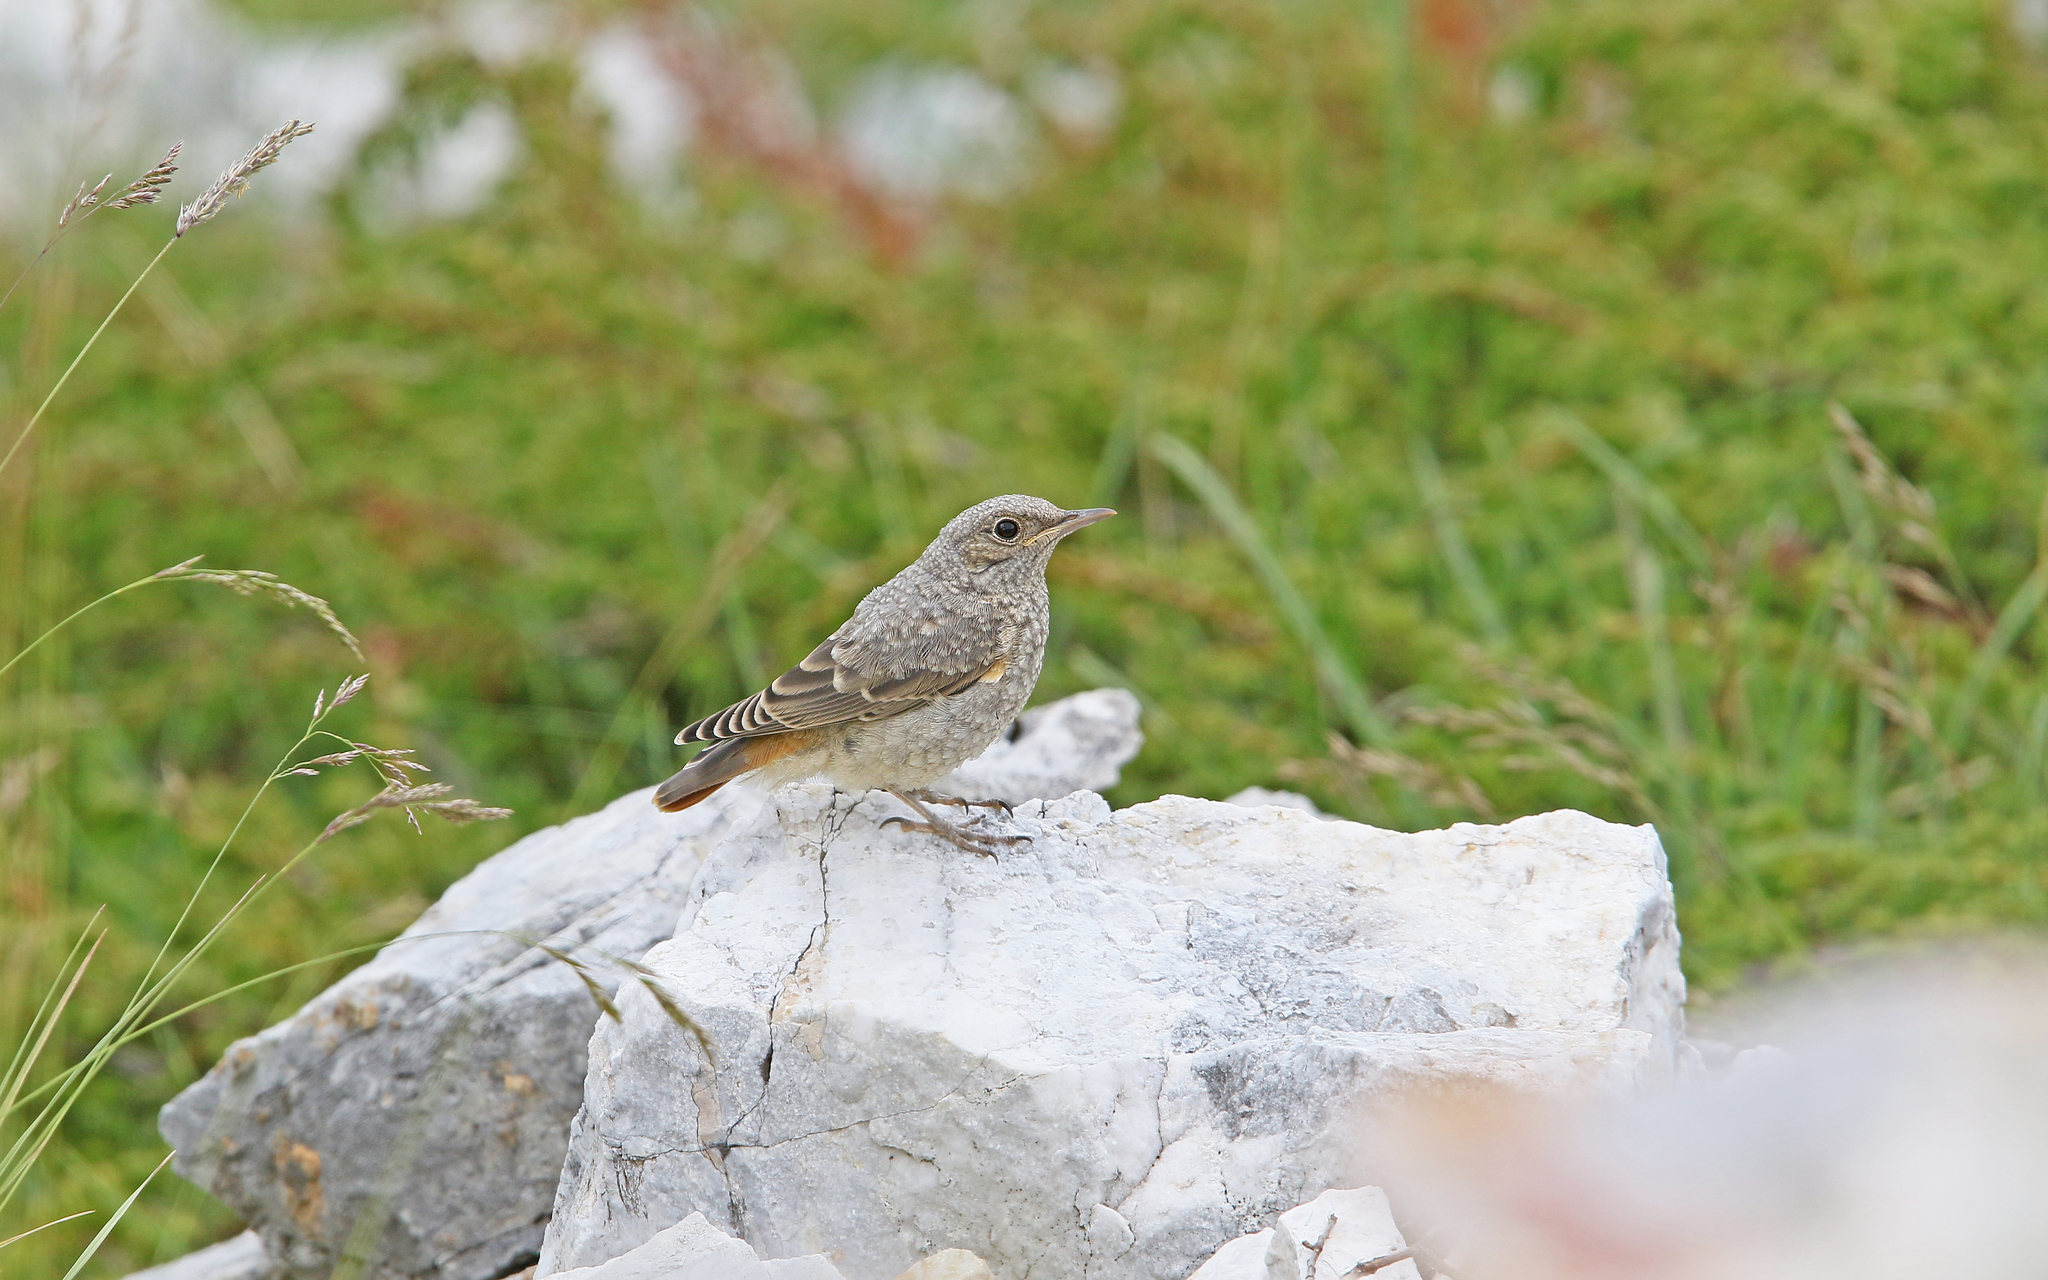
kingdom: Animalia
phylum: Chordata
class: Aves
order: Passeriformes
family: Muscicapidae
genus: Monticola
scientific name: Monticola saxatilis
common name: Rufous-tailed rock thrush
